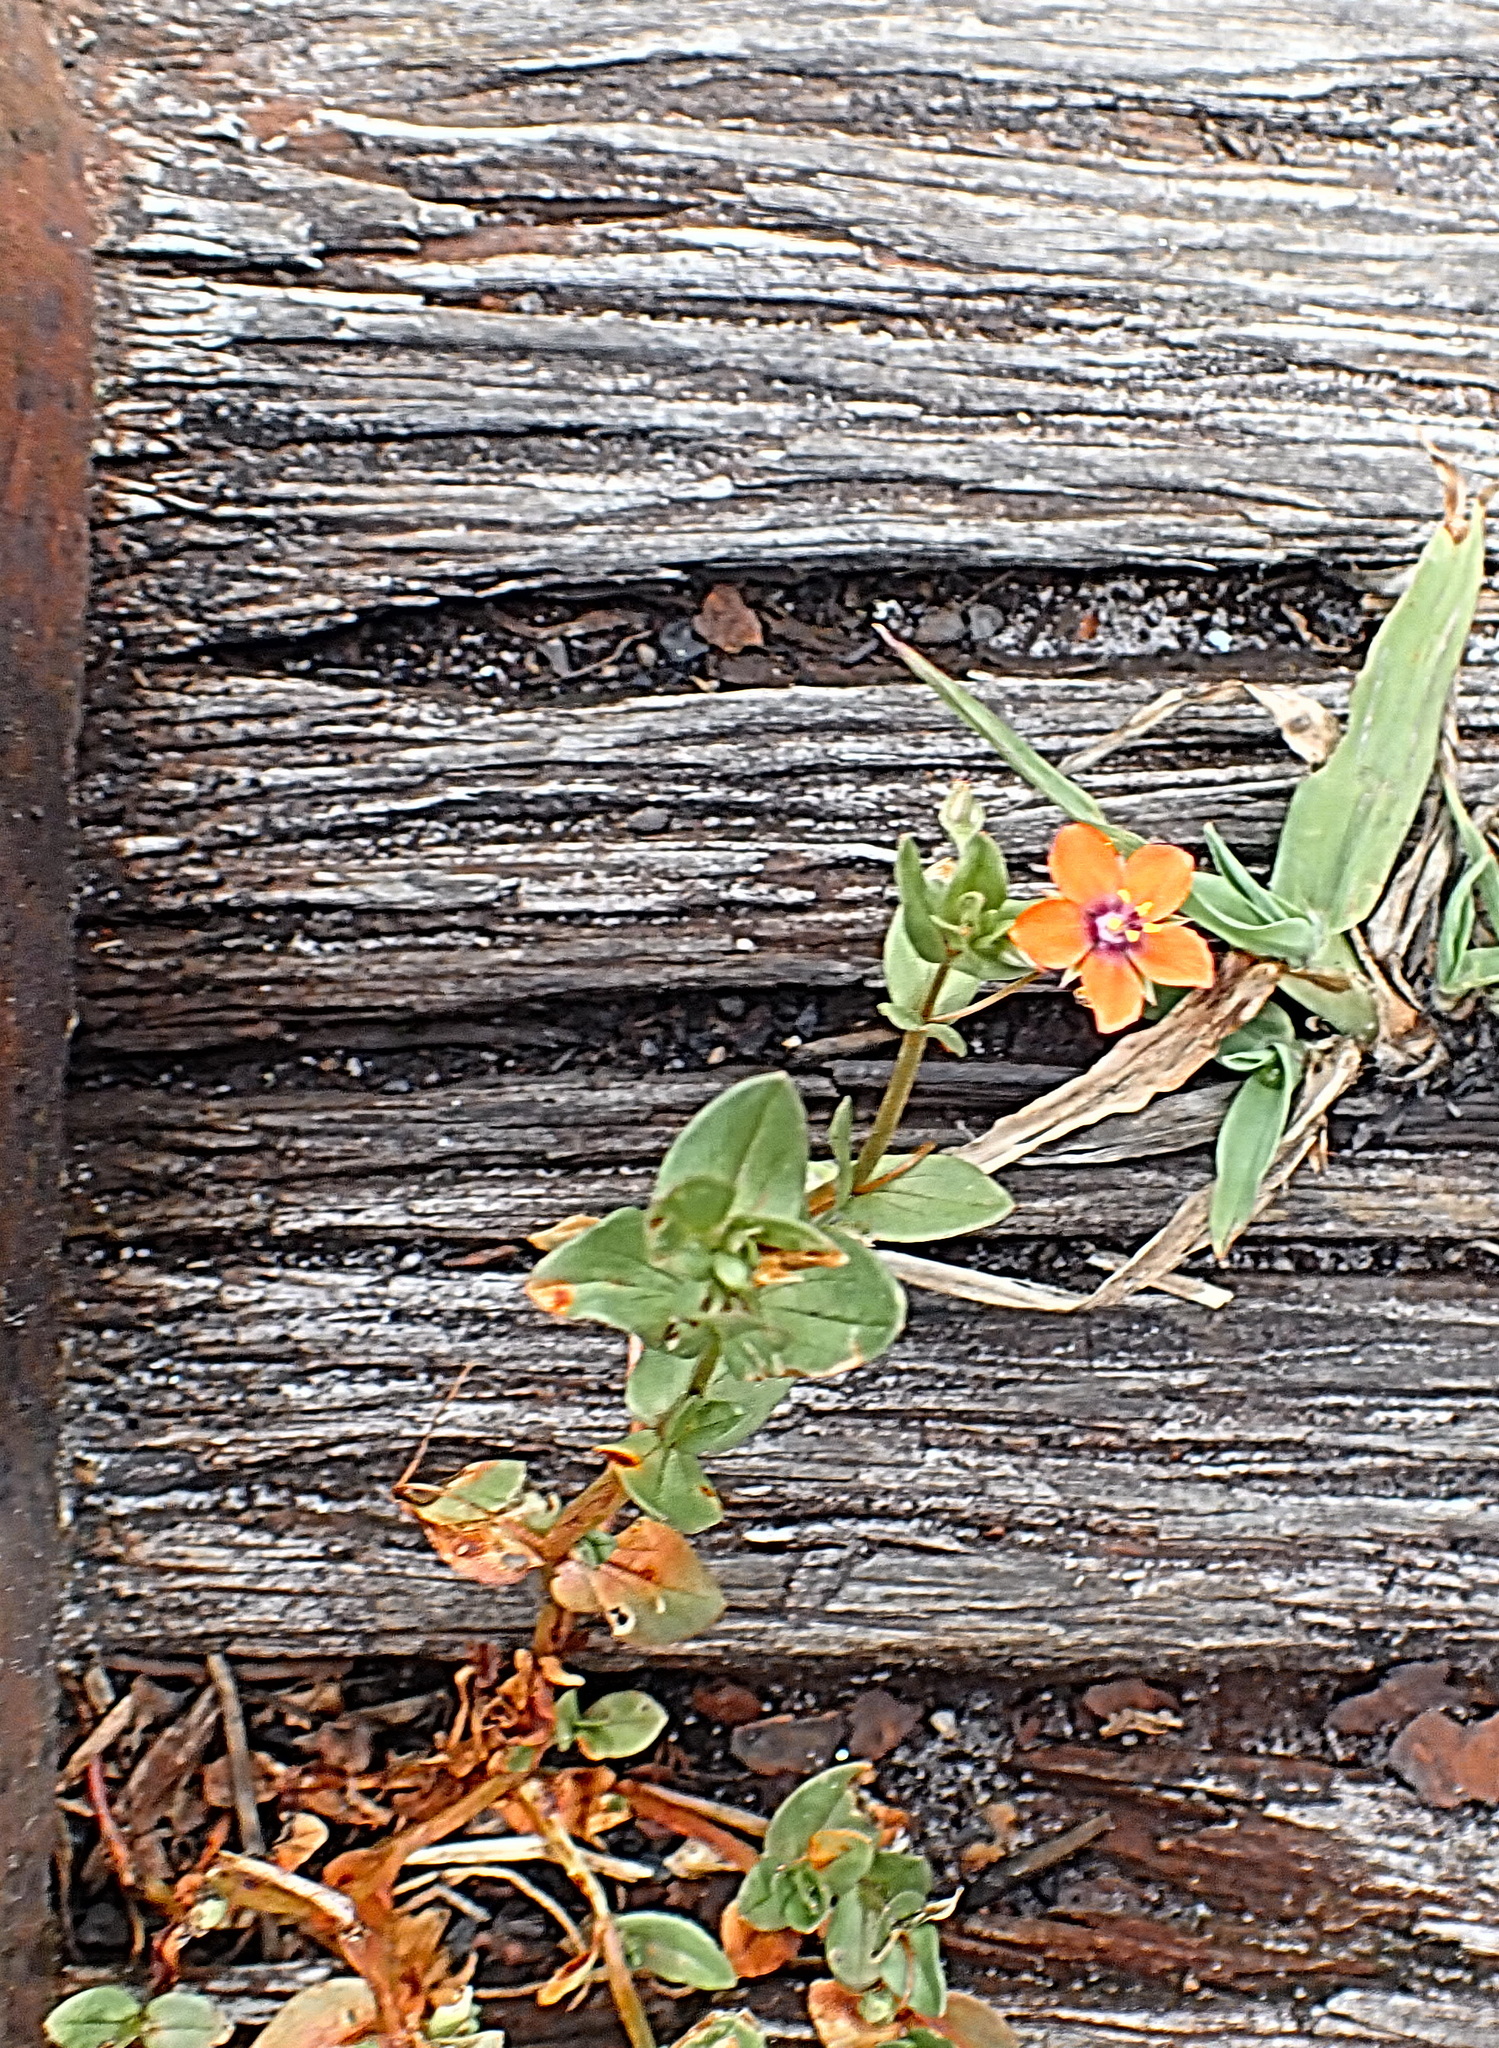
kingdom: Plantae
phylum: Tracheophyta
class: Magnoliopsida
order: Ericales
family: Primulaceae
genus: Lysimachia
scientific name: Lysimachia arvensis
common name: Scarlet pimpernel
